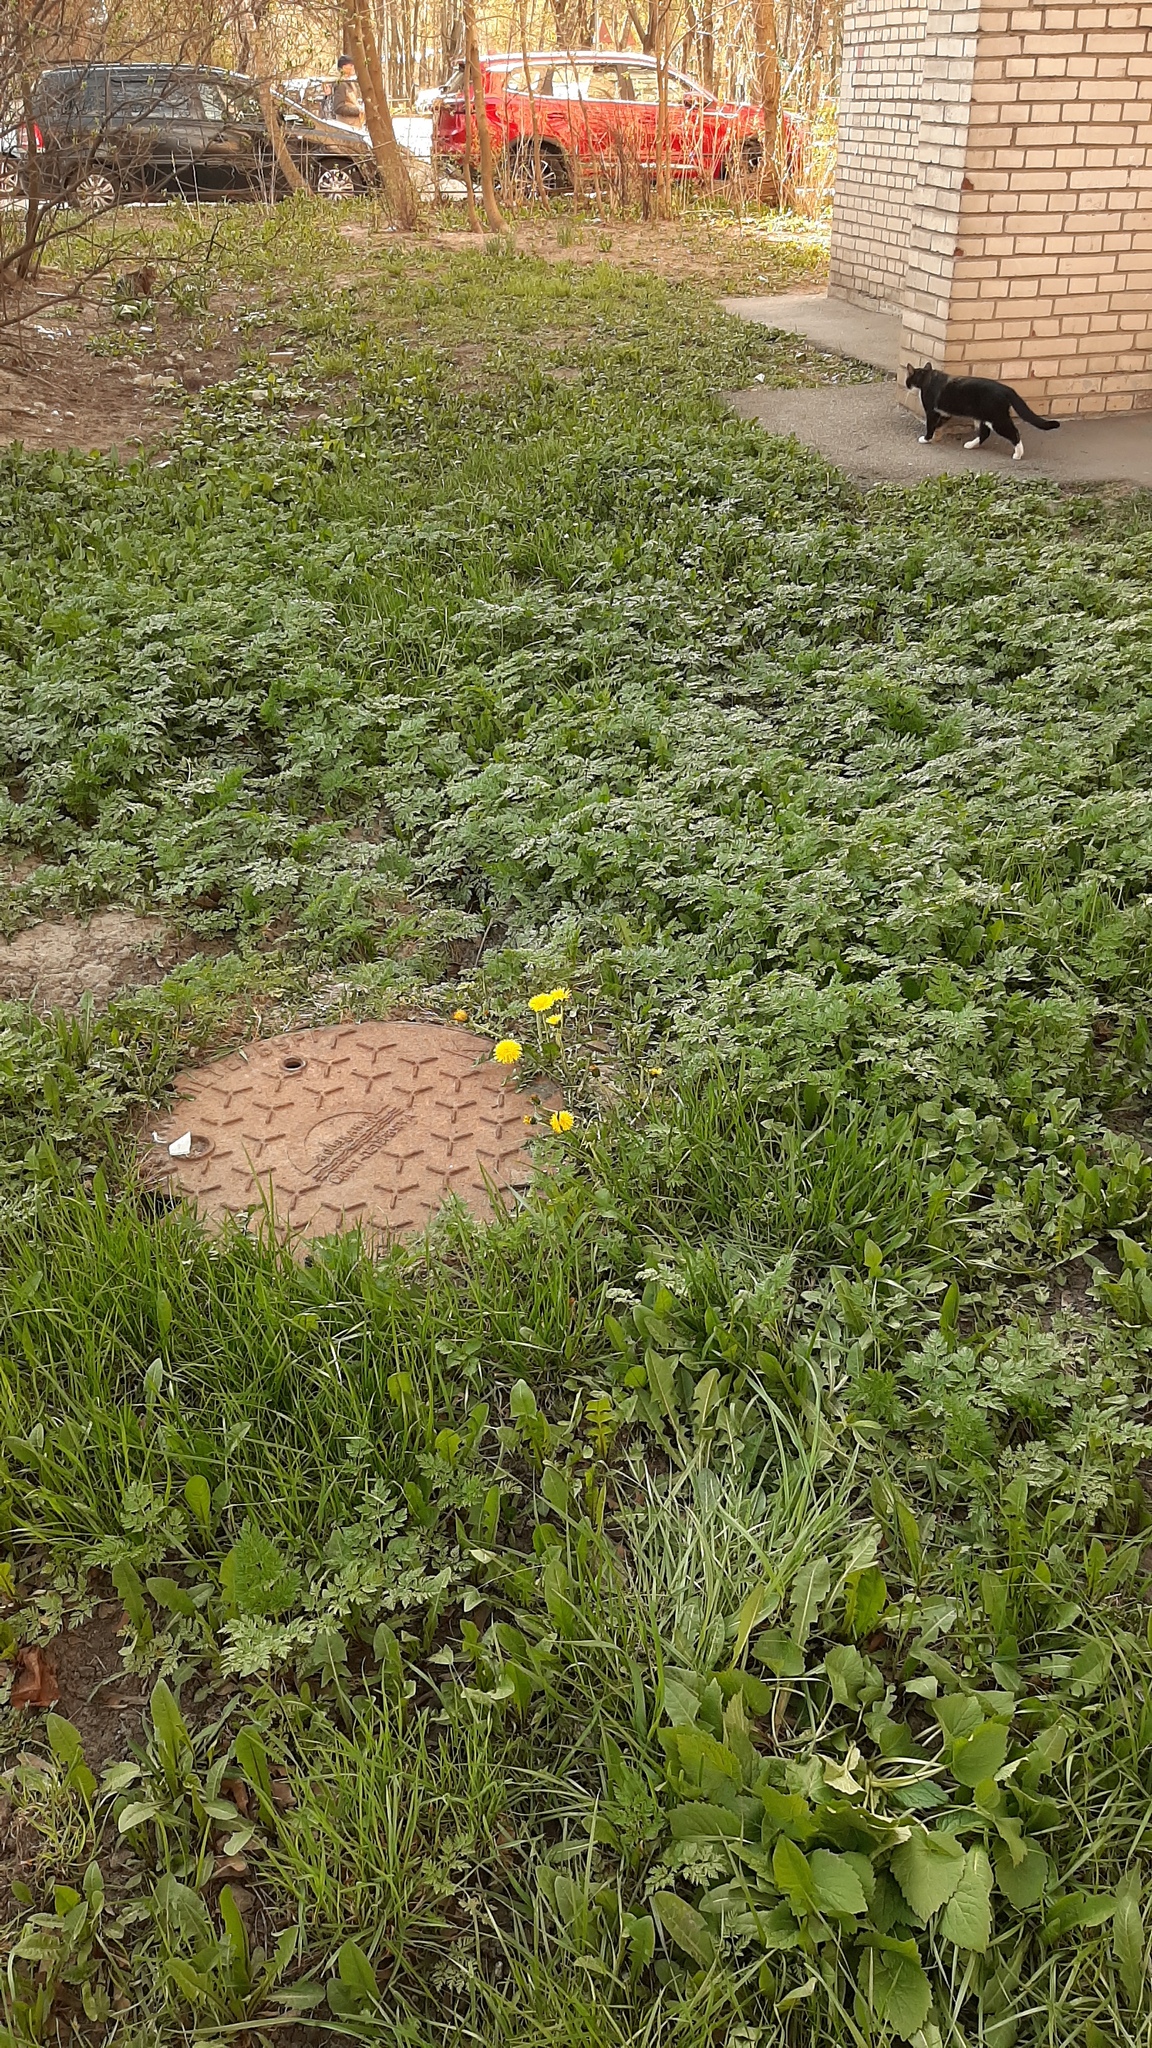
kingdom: Plantae
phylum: Tracheophyta
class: Magnoliopsida
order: Asterales
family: Asteraceae
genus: Taraxacum
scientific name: Taraxacum officinale
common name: Common dandelion
